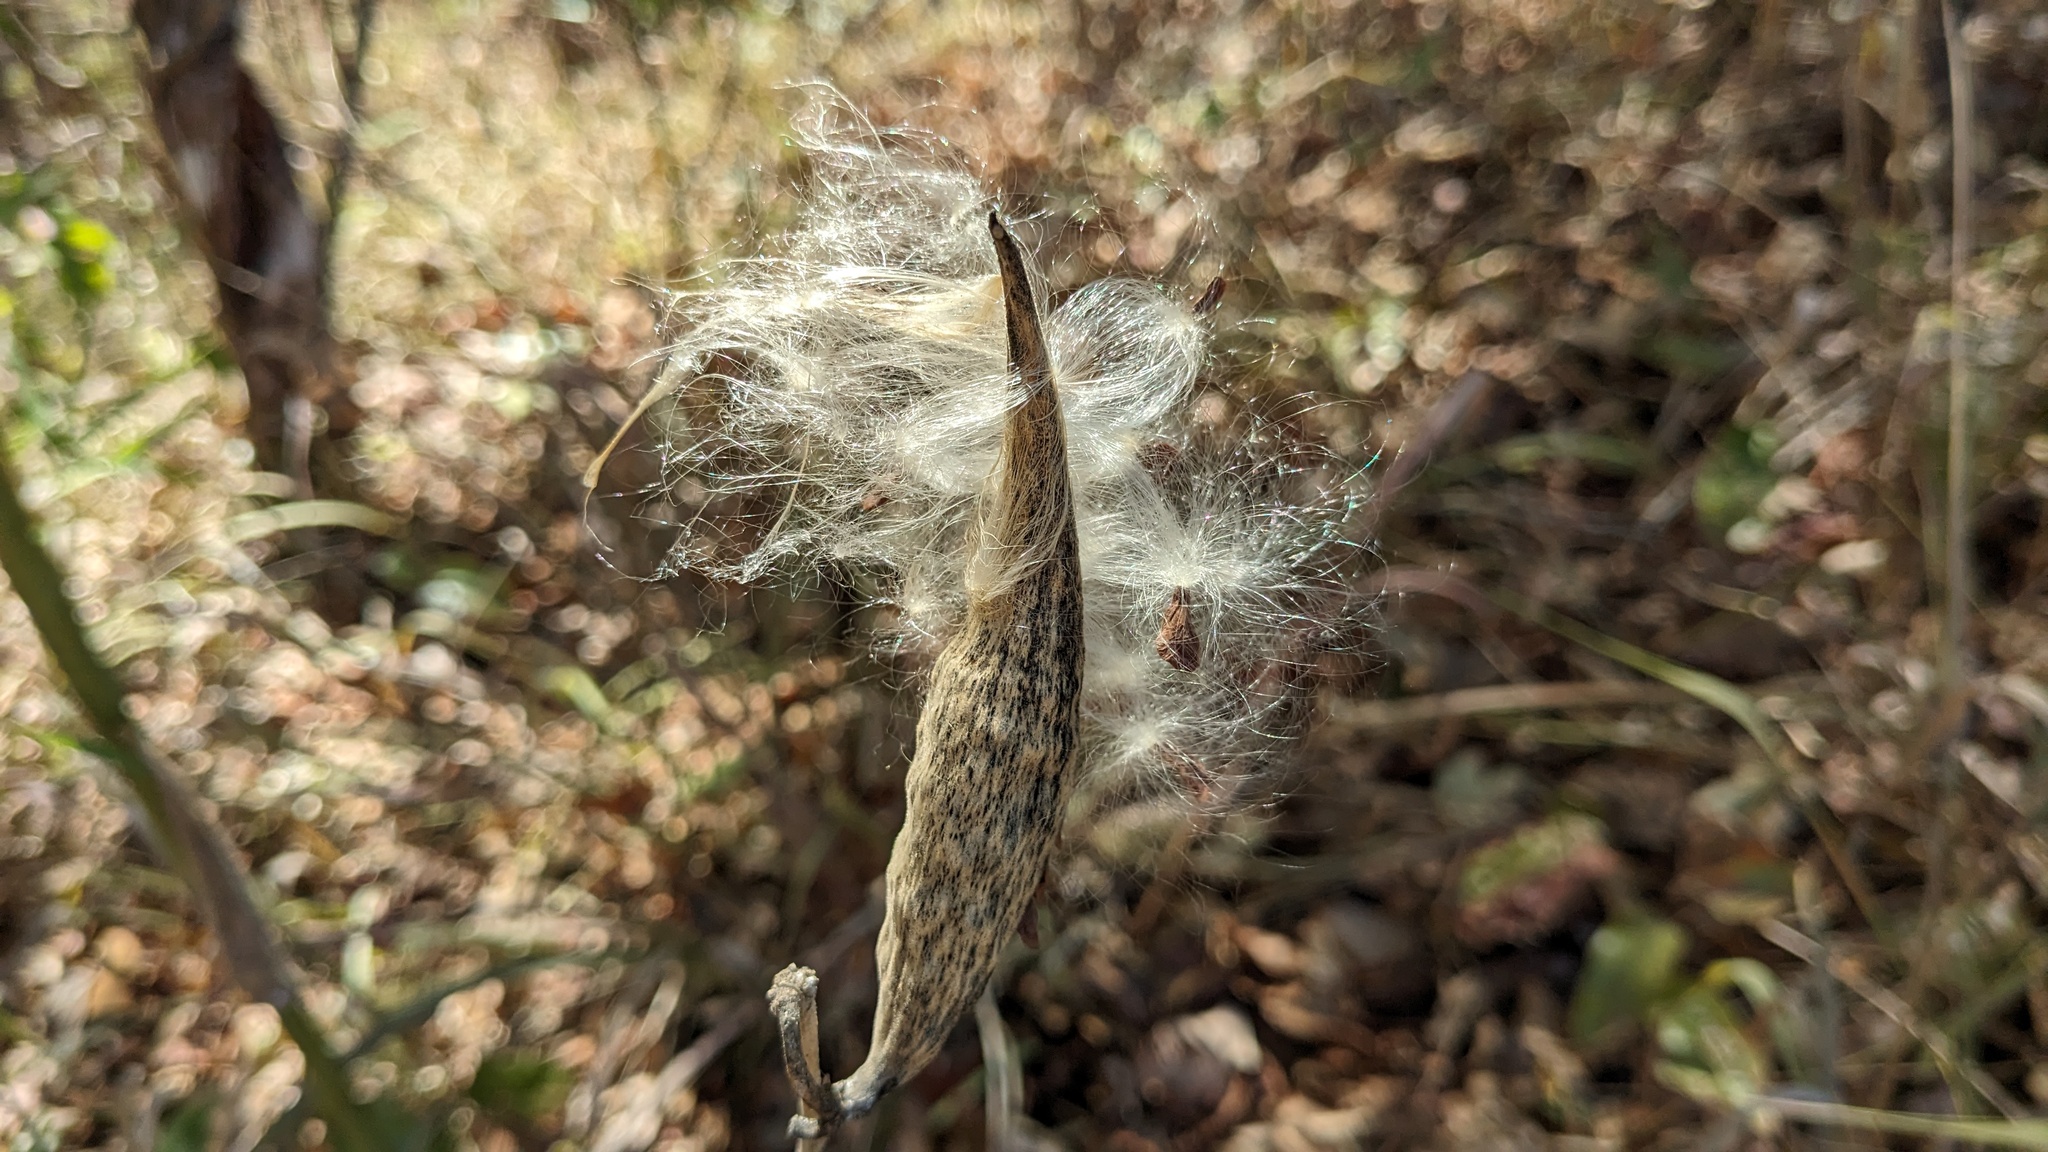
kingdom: Plantae
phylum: Tracheophyta
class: Magnoliopsida
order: Gentianales
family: Apocynaceae
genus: Asclepias
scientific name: Asclepias variegata
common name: Variegated milkweed
